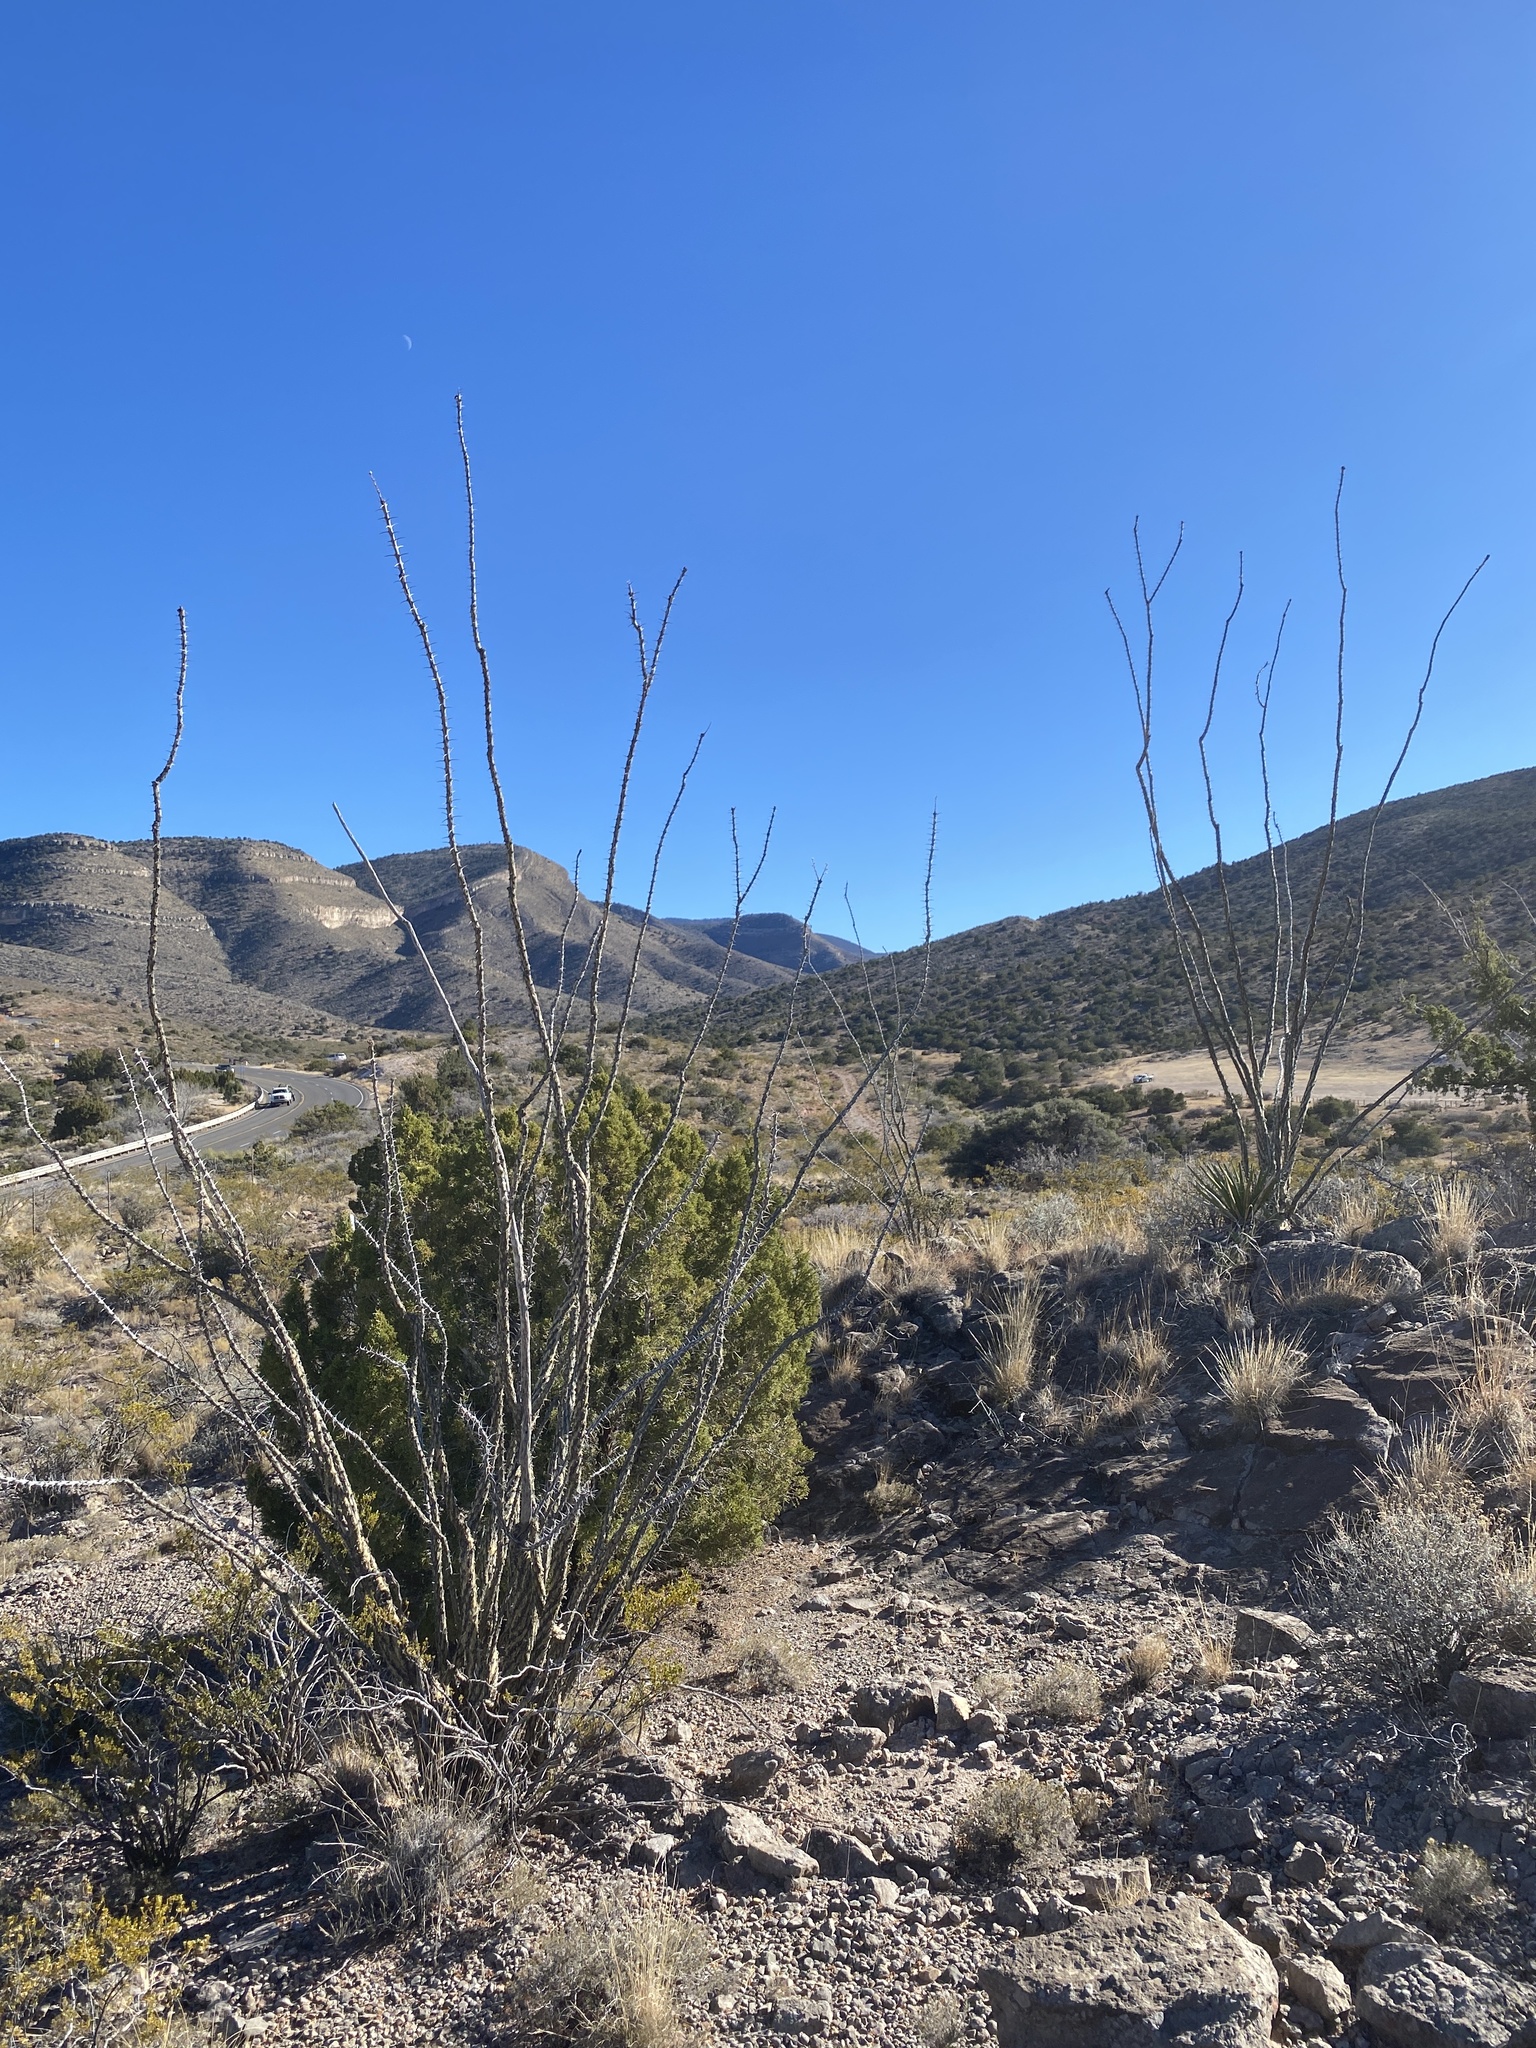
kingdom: Plantae
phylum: Tracheophyta
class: Magnoliopsida
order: Ericales
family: Fouquieriaceae
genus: Fouquieria
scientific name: Fouquieria splendens
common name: Vine-cactus
